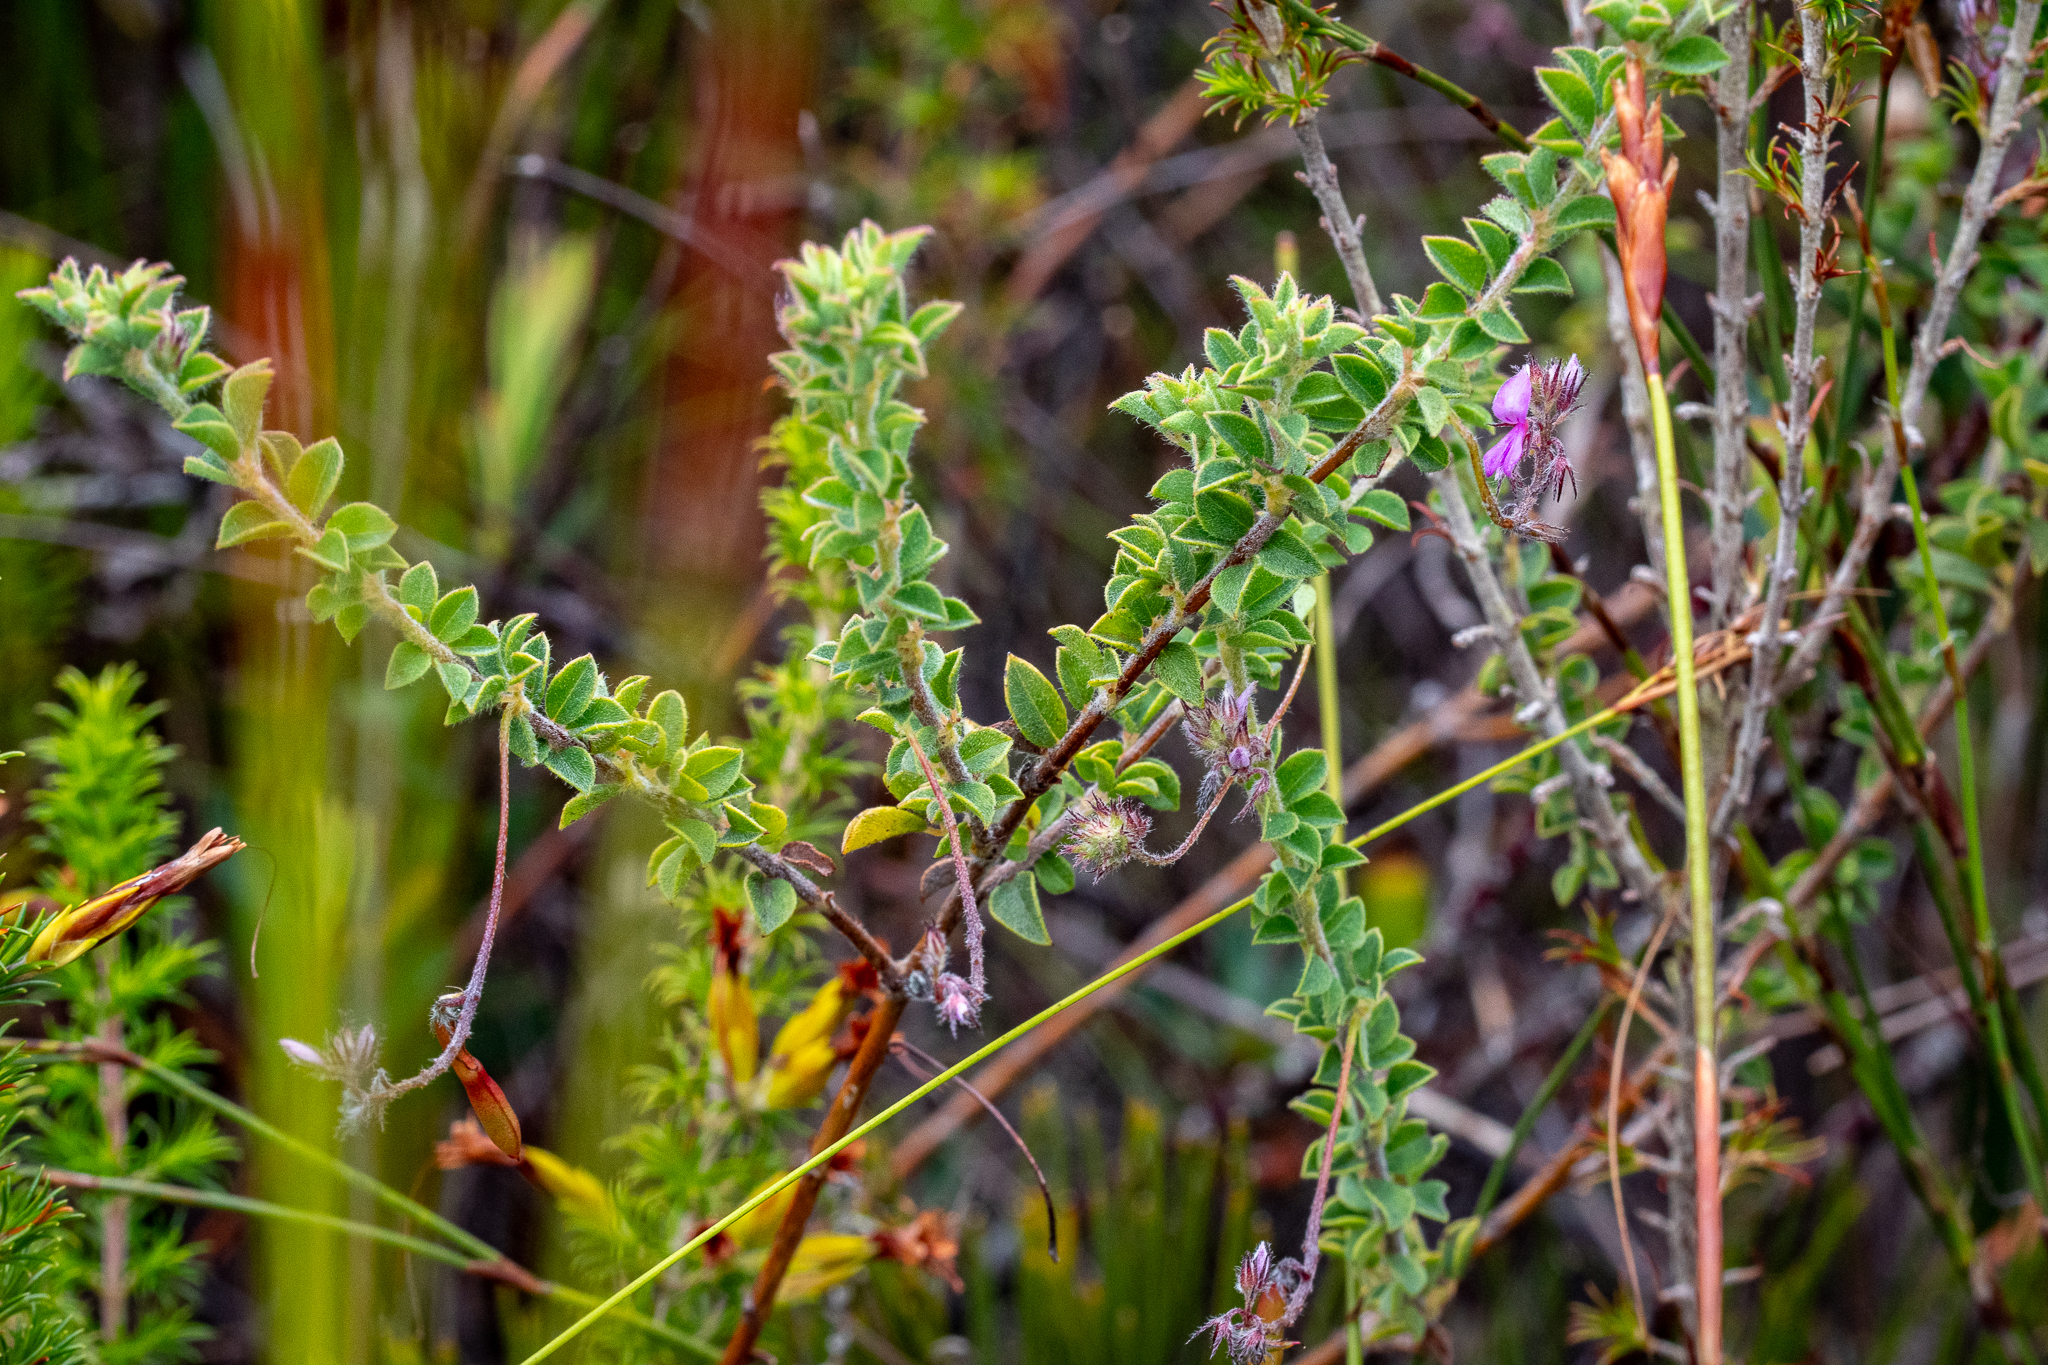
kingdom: Plantae
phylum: Tracheophyta
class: Magnoliopsida
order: Fabales
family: Fabaceae
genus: Indigofera
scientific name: Indigofera alopecuroides
